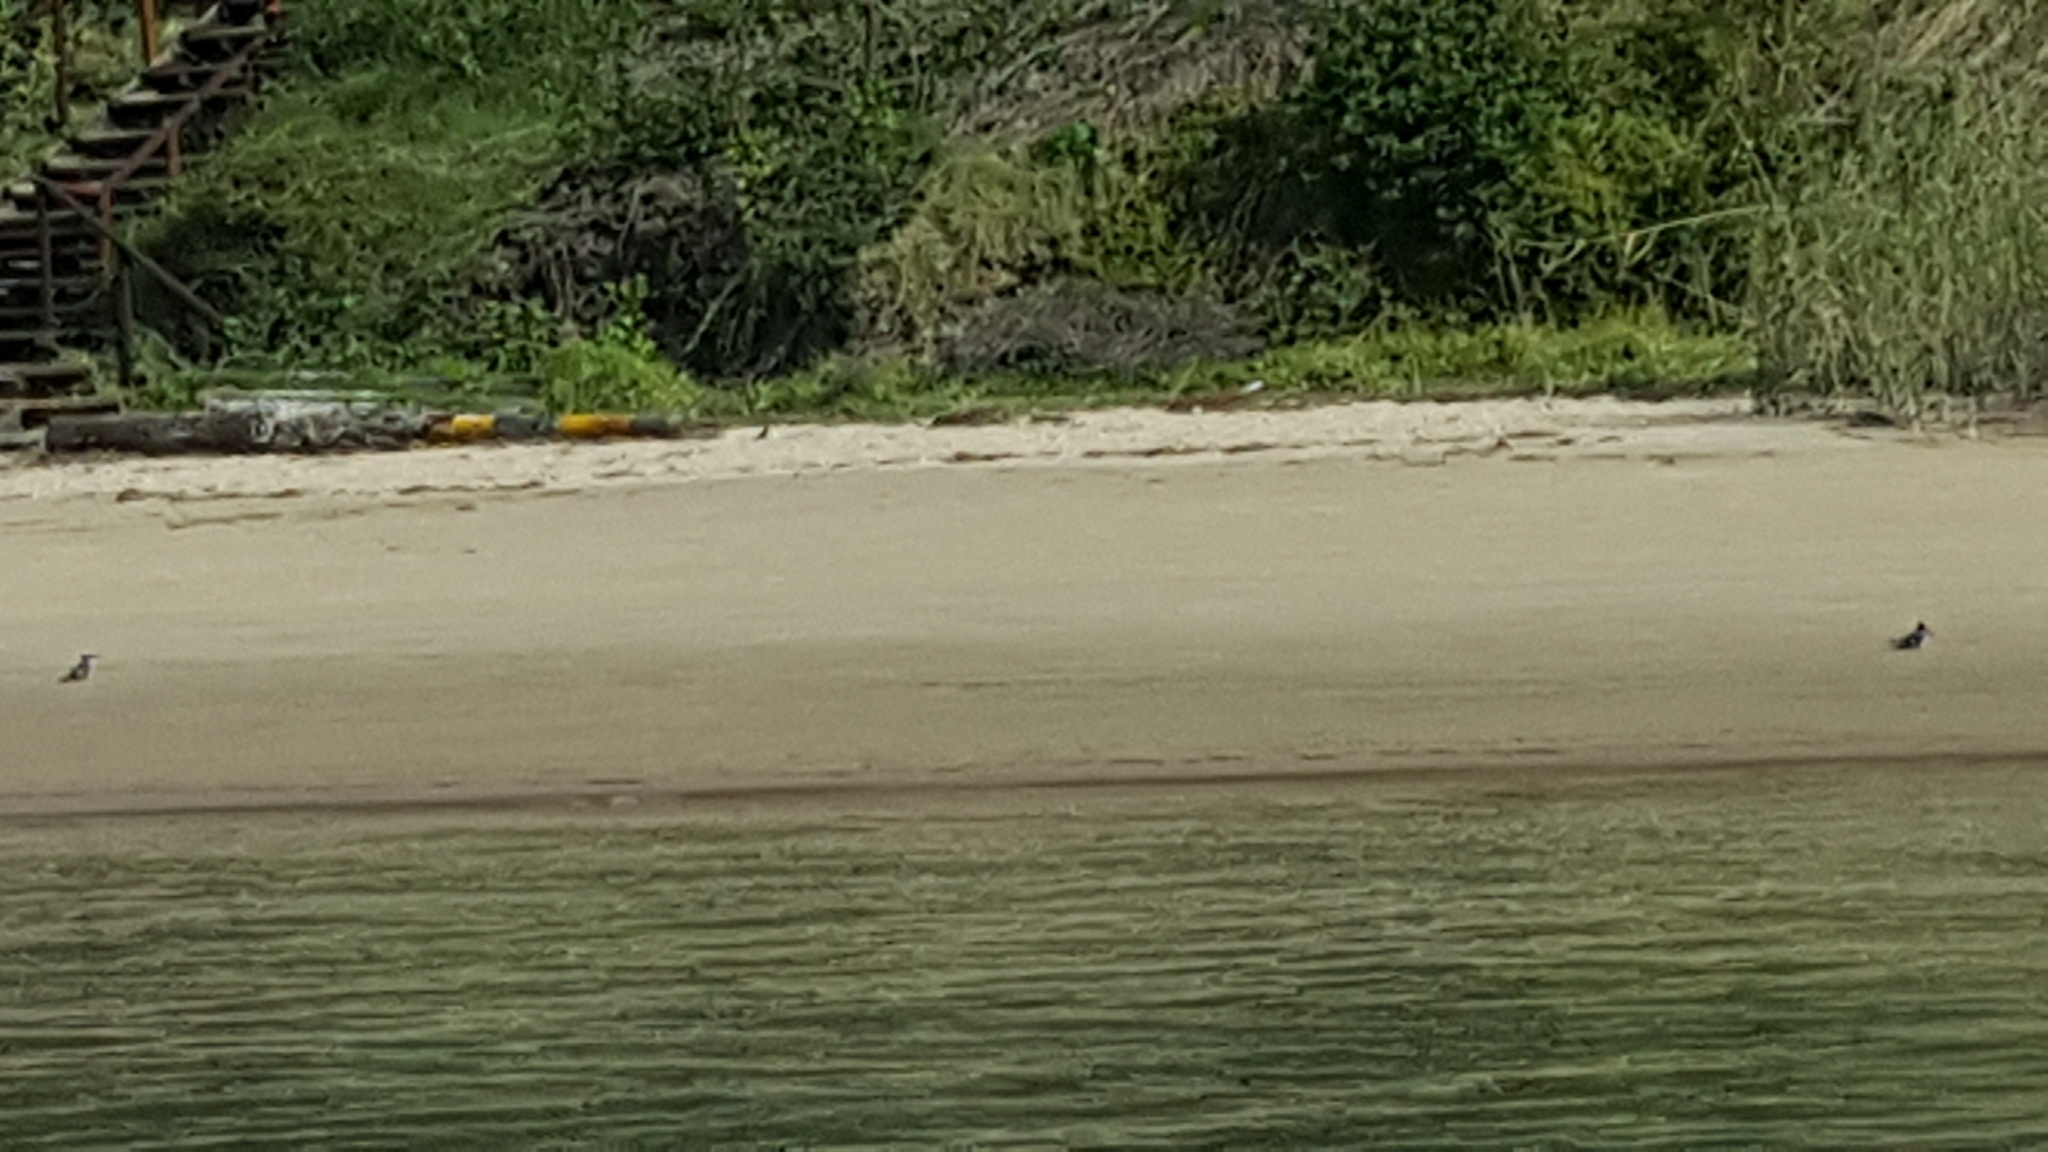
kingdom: Animalia
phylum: Chordata
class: Aves
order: Coraciiformes
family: Alcedinidae
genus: Ceryle
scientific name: Ceryle rudis
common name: Pied kingfisher
